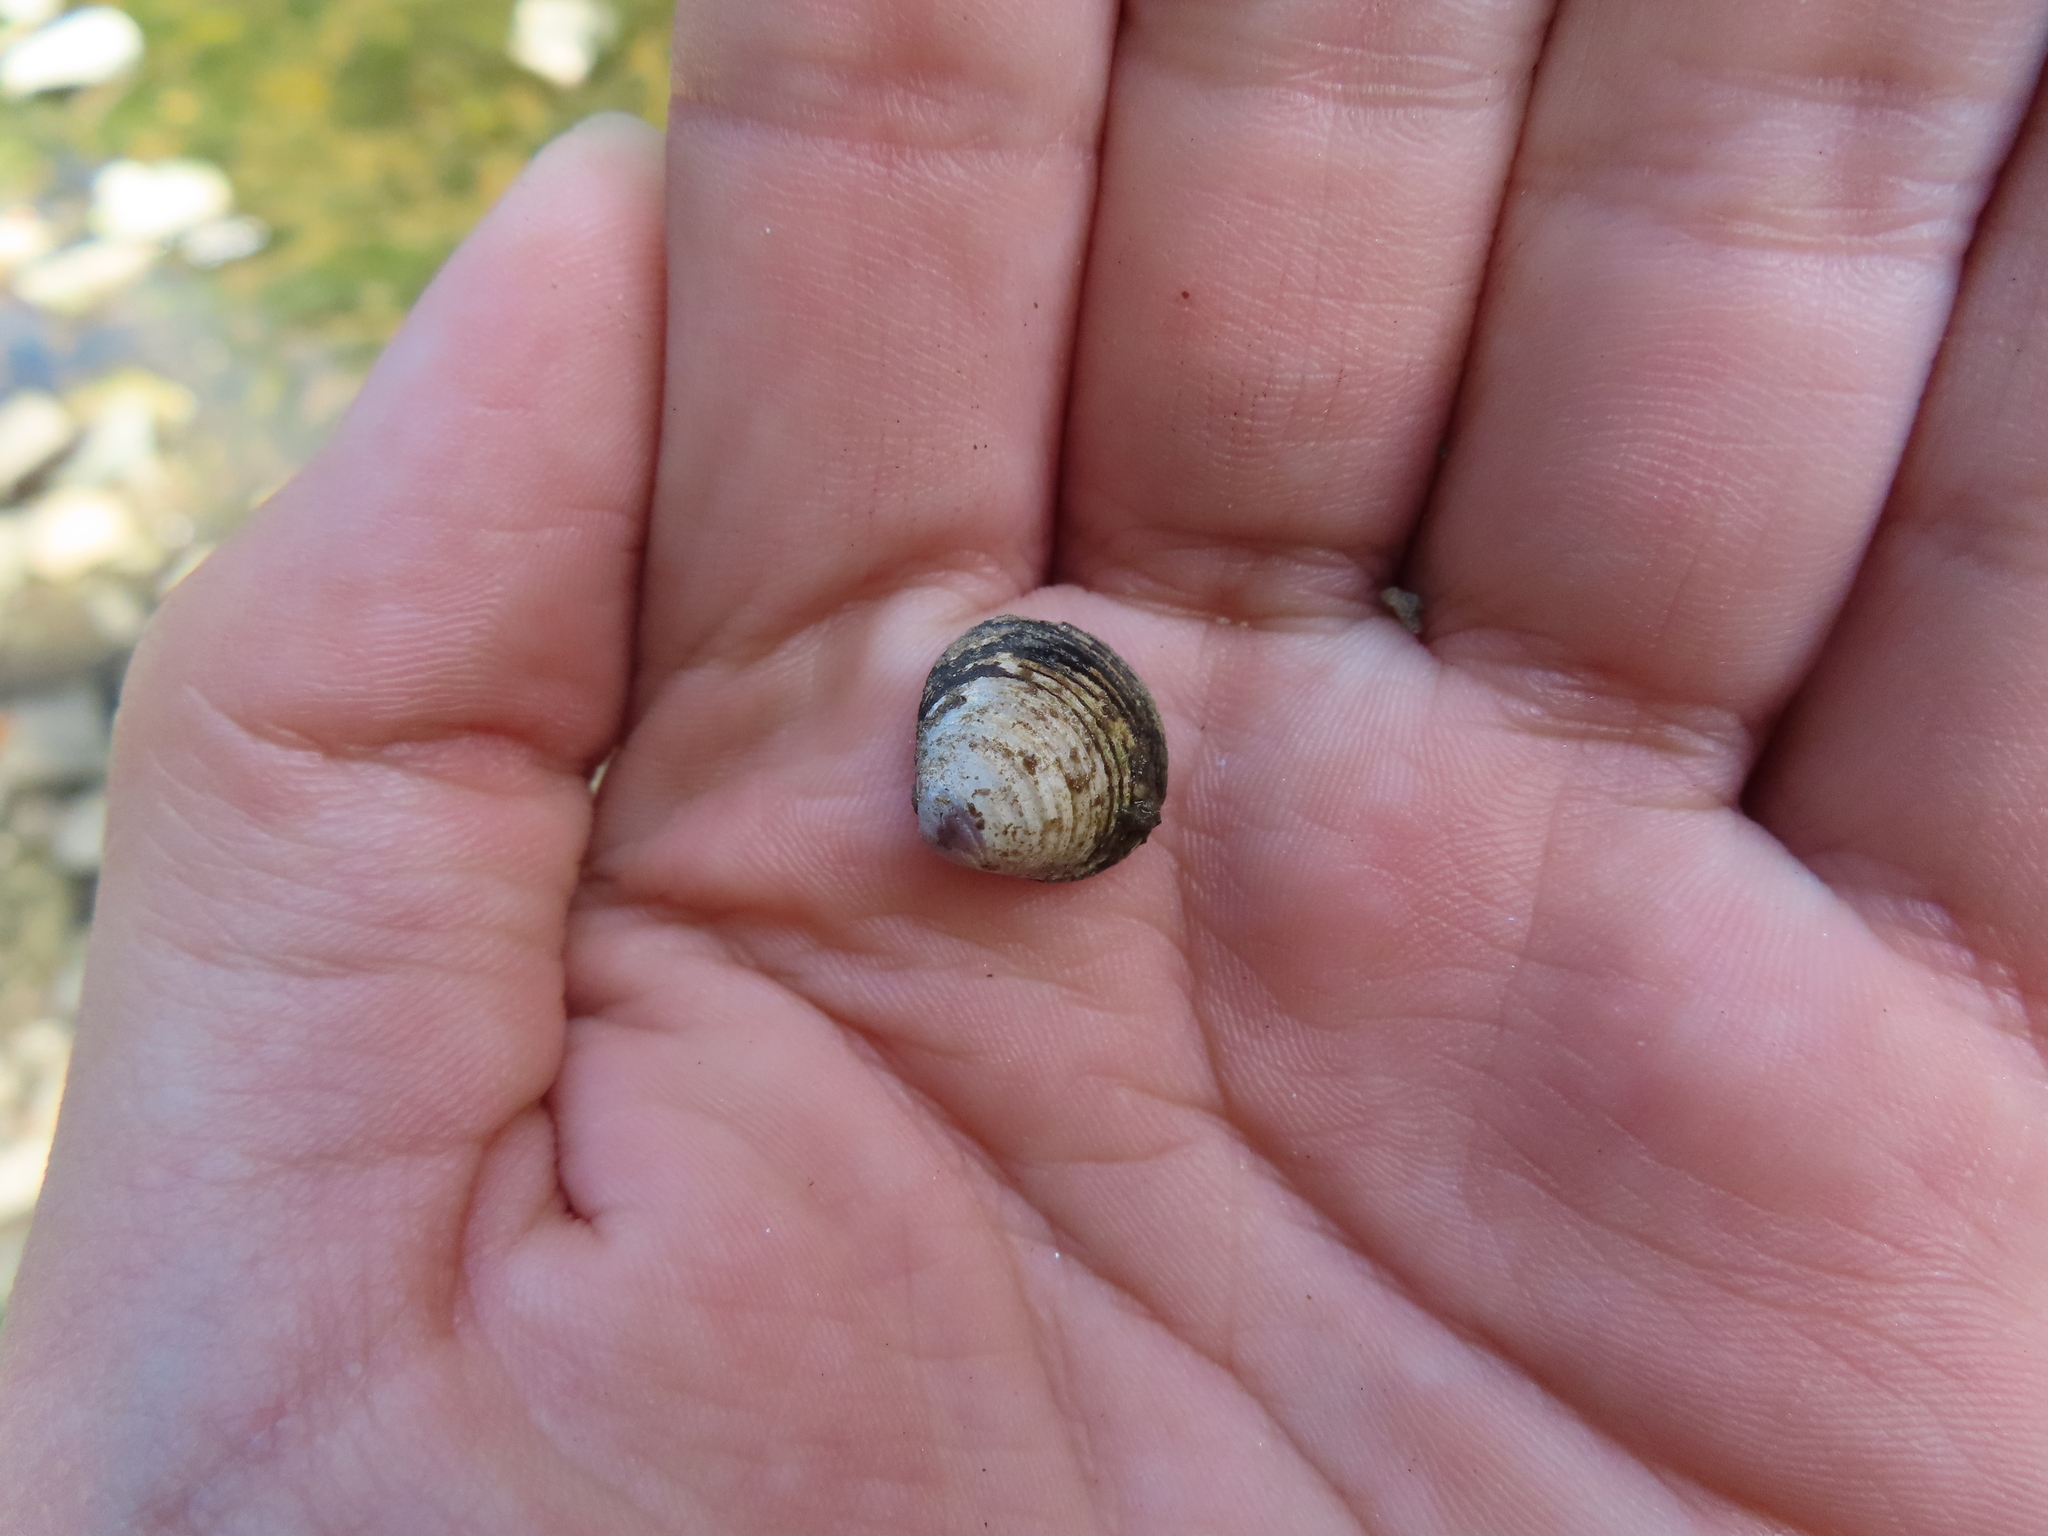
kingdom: Animalia
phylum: Mollusca
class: Bivalvia
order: Venerida
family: Cyrenidae
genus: Corbicula
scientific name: Corbicula fluminea
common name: Asian clam
